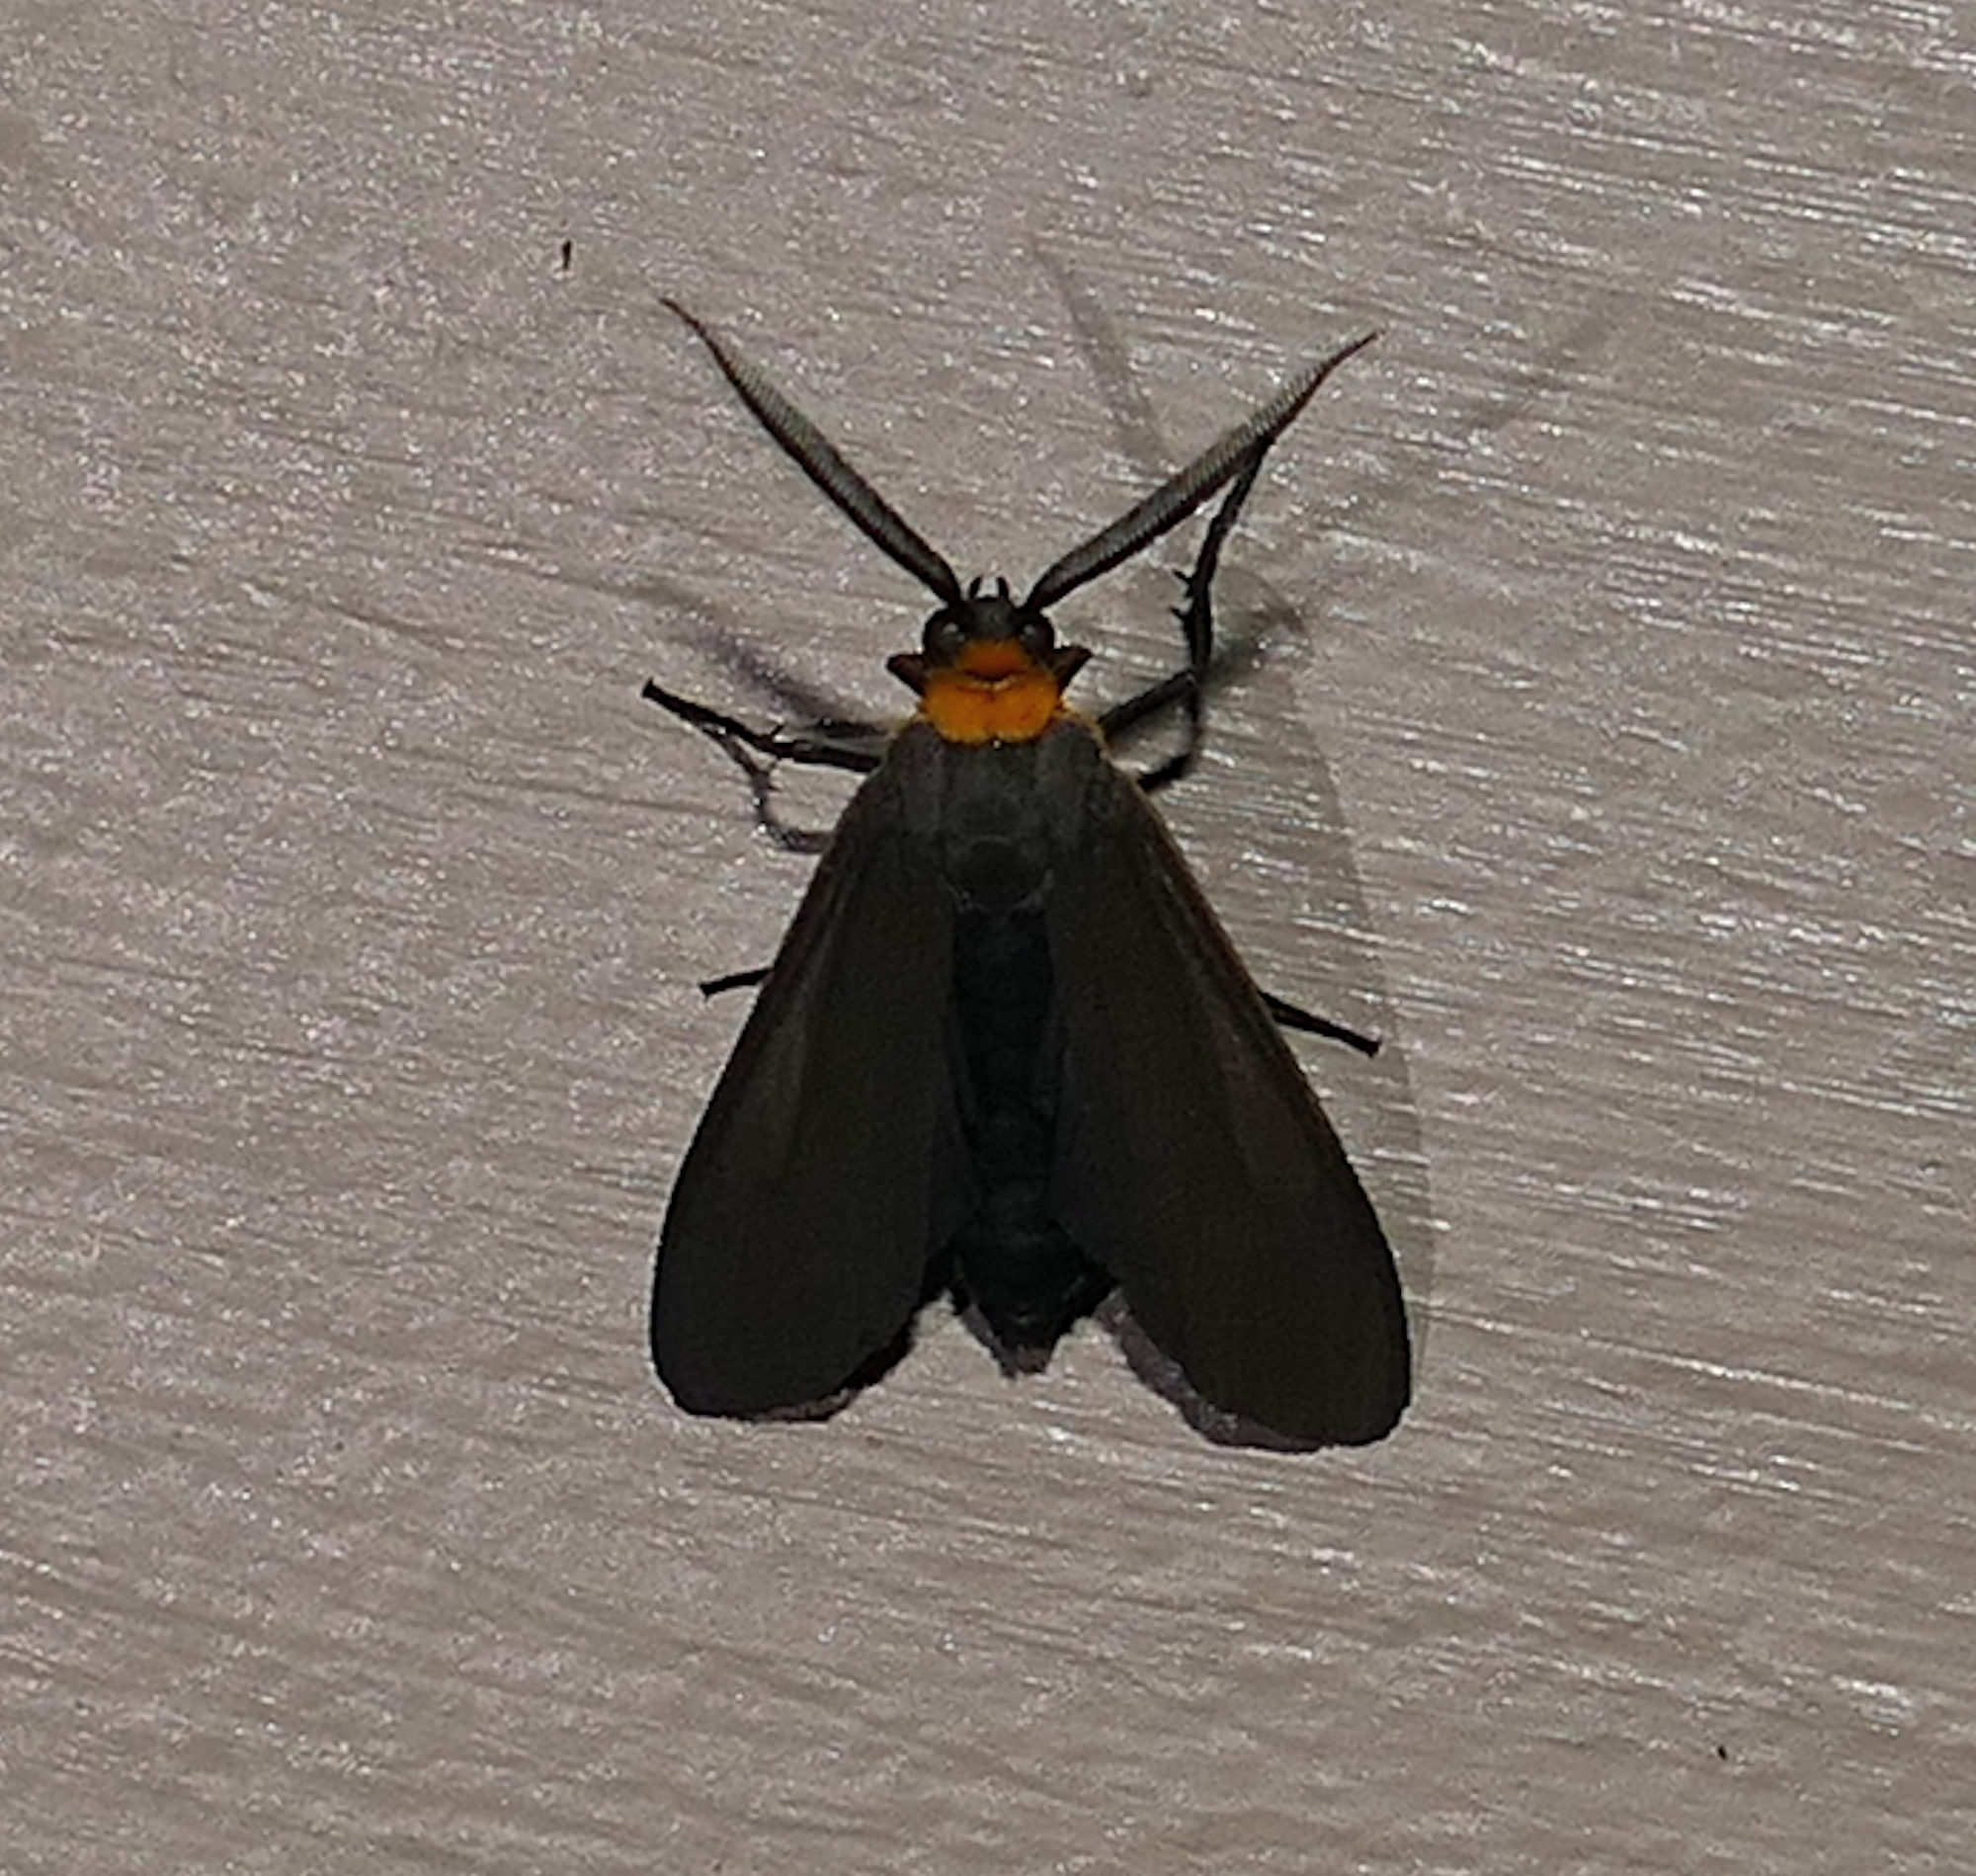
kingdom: Animalia
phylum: Arthropoda
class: Insecta
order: Lepidoptera
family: Erebidae
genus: Cisseps
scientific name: Cisseps fulvicollis
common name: Yellow-collared scape moth
